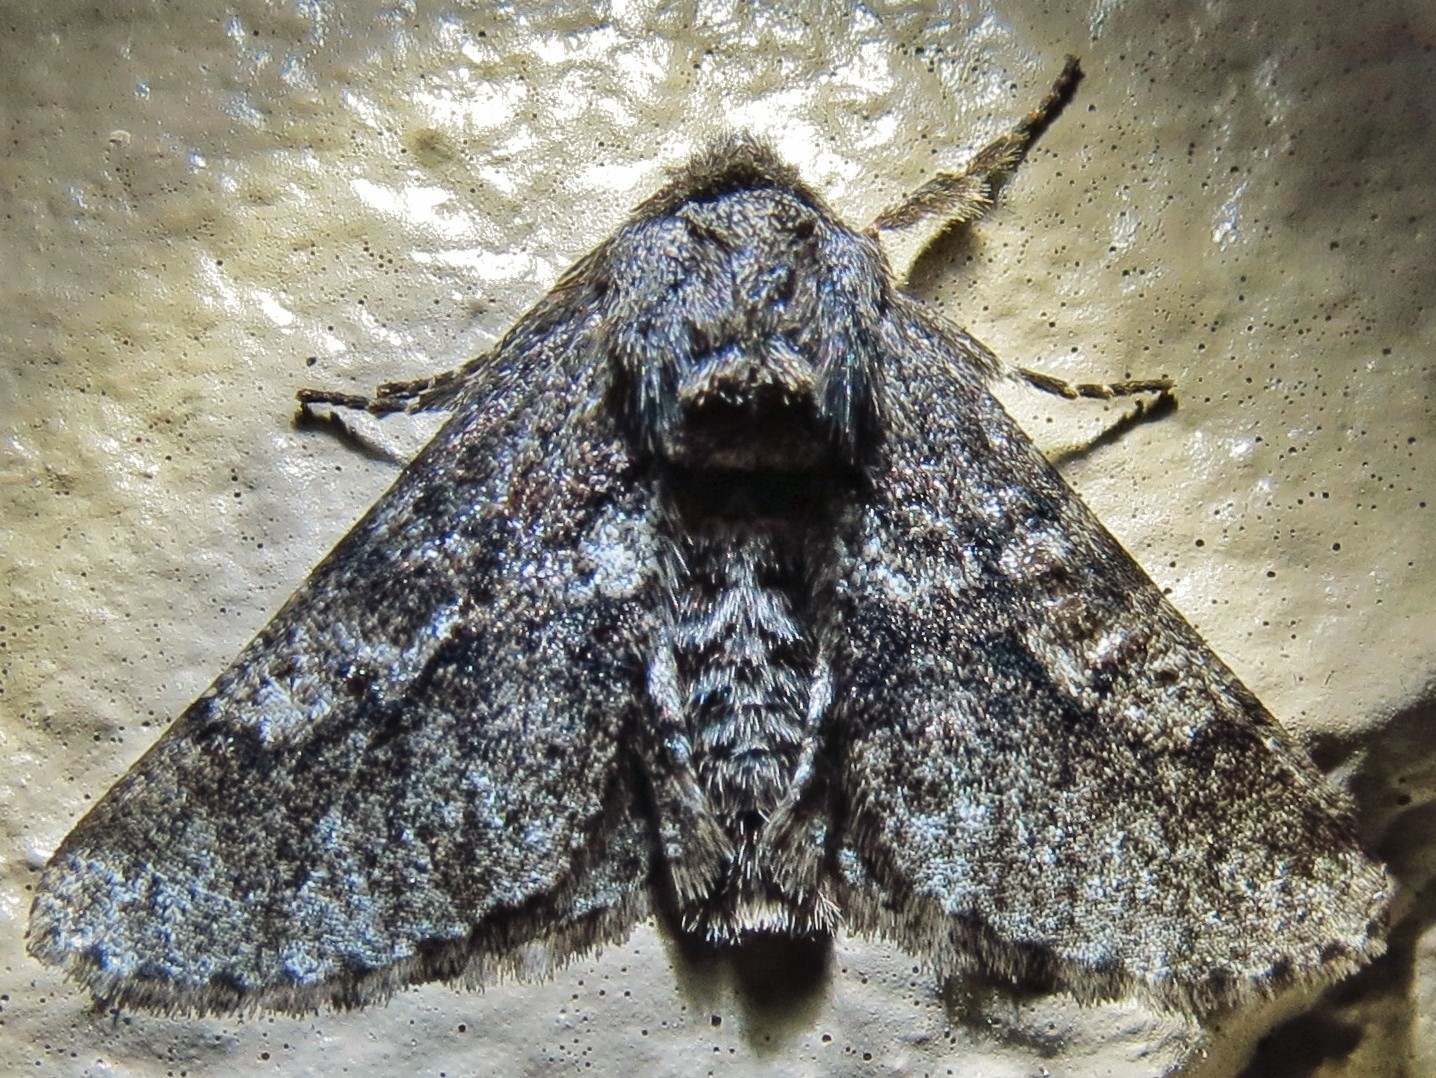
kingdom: Animalia
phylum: Arthropoda
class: Insecta
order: Lepidoptera
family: Geometridae
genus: Lycia
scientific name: Lycia ypsilon
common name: Wooly gray
